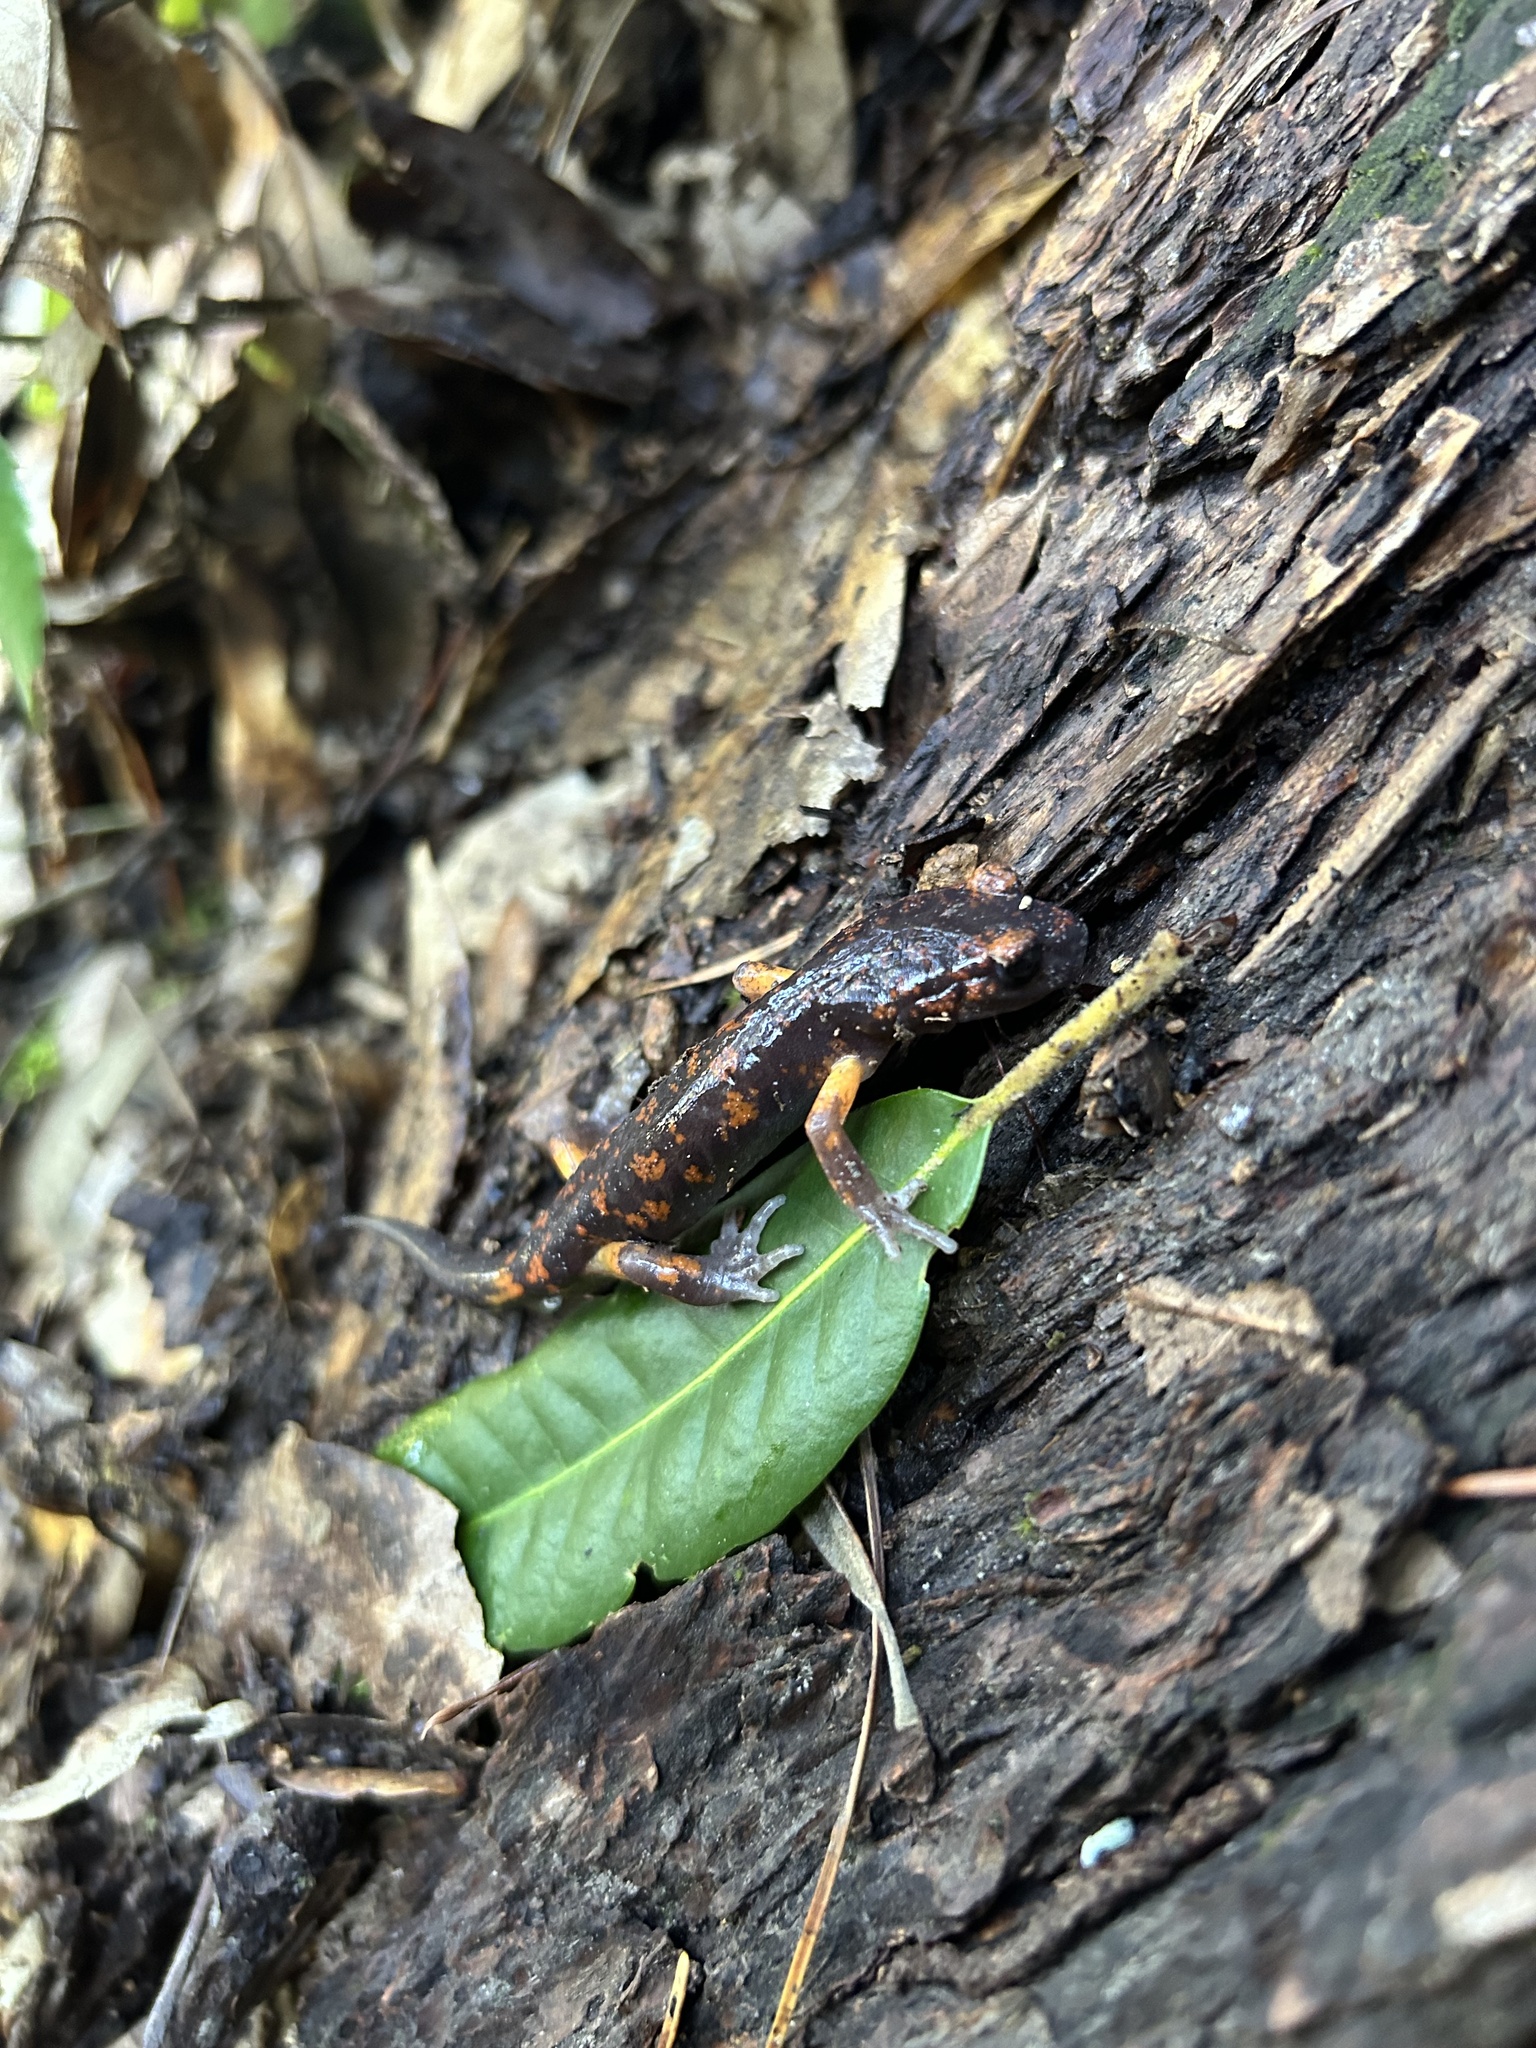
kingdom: Animalia
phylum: Chordata
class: Amphibia
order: Caudata
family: Plethodontidae
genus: Ensatina
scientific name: Ensatina eschscholtzii
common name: Ensatina
